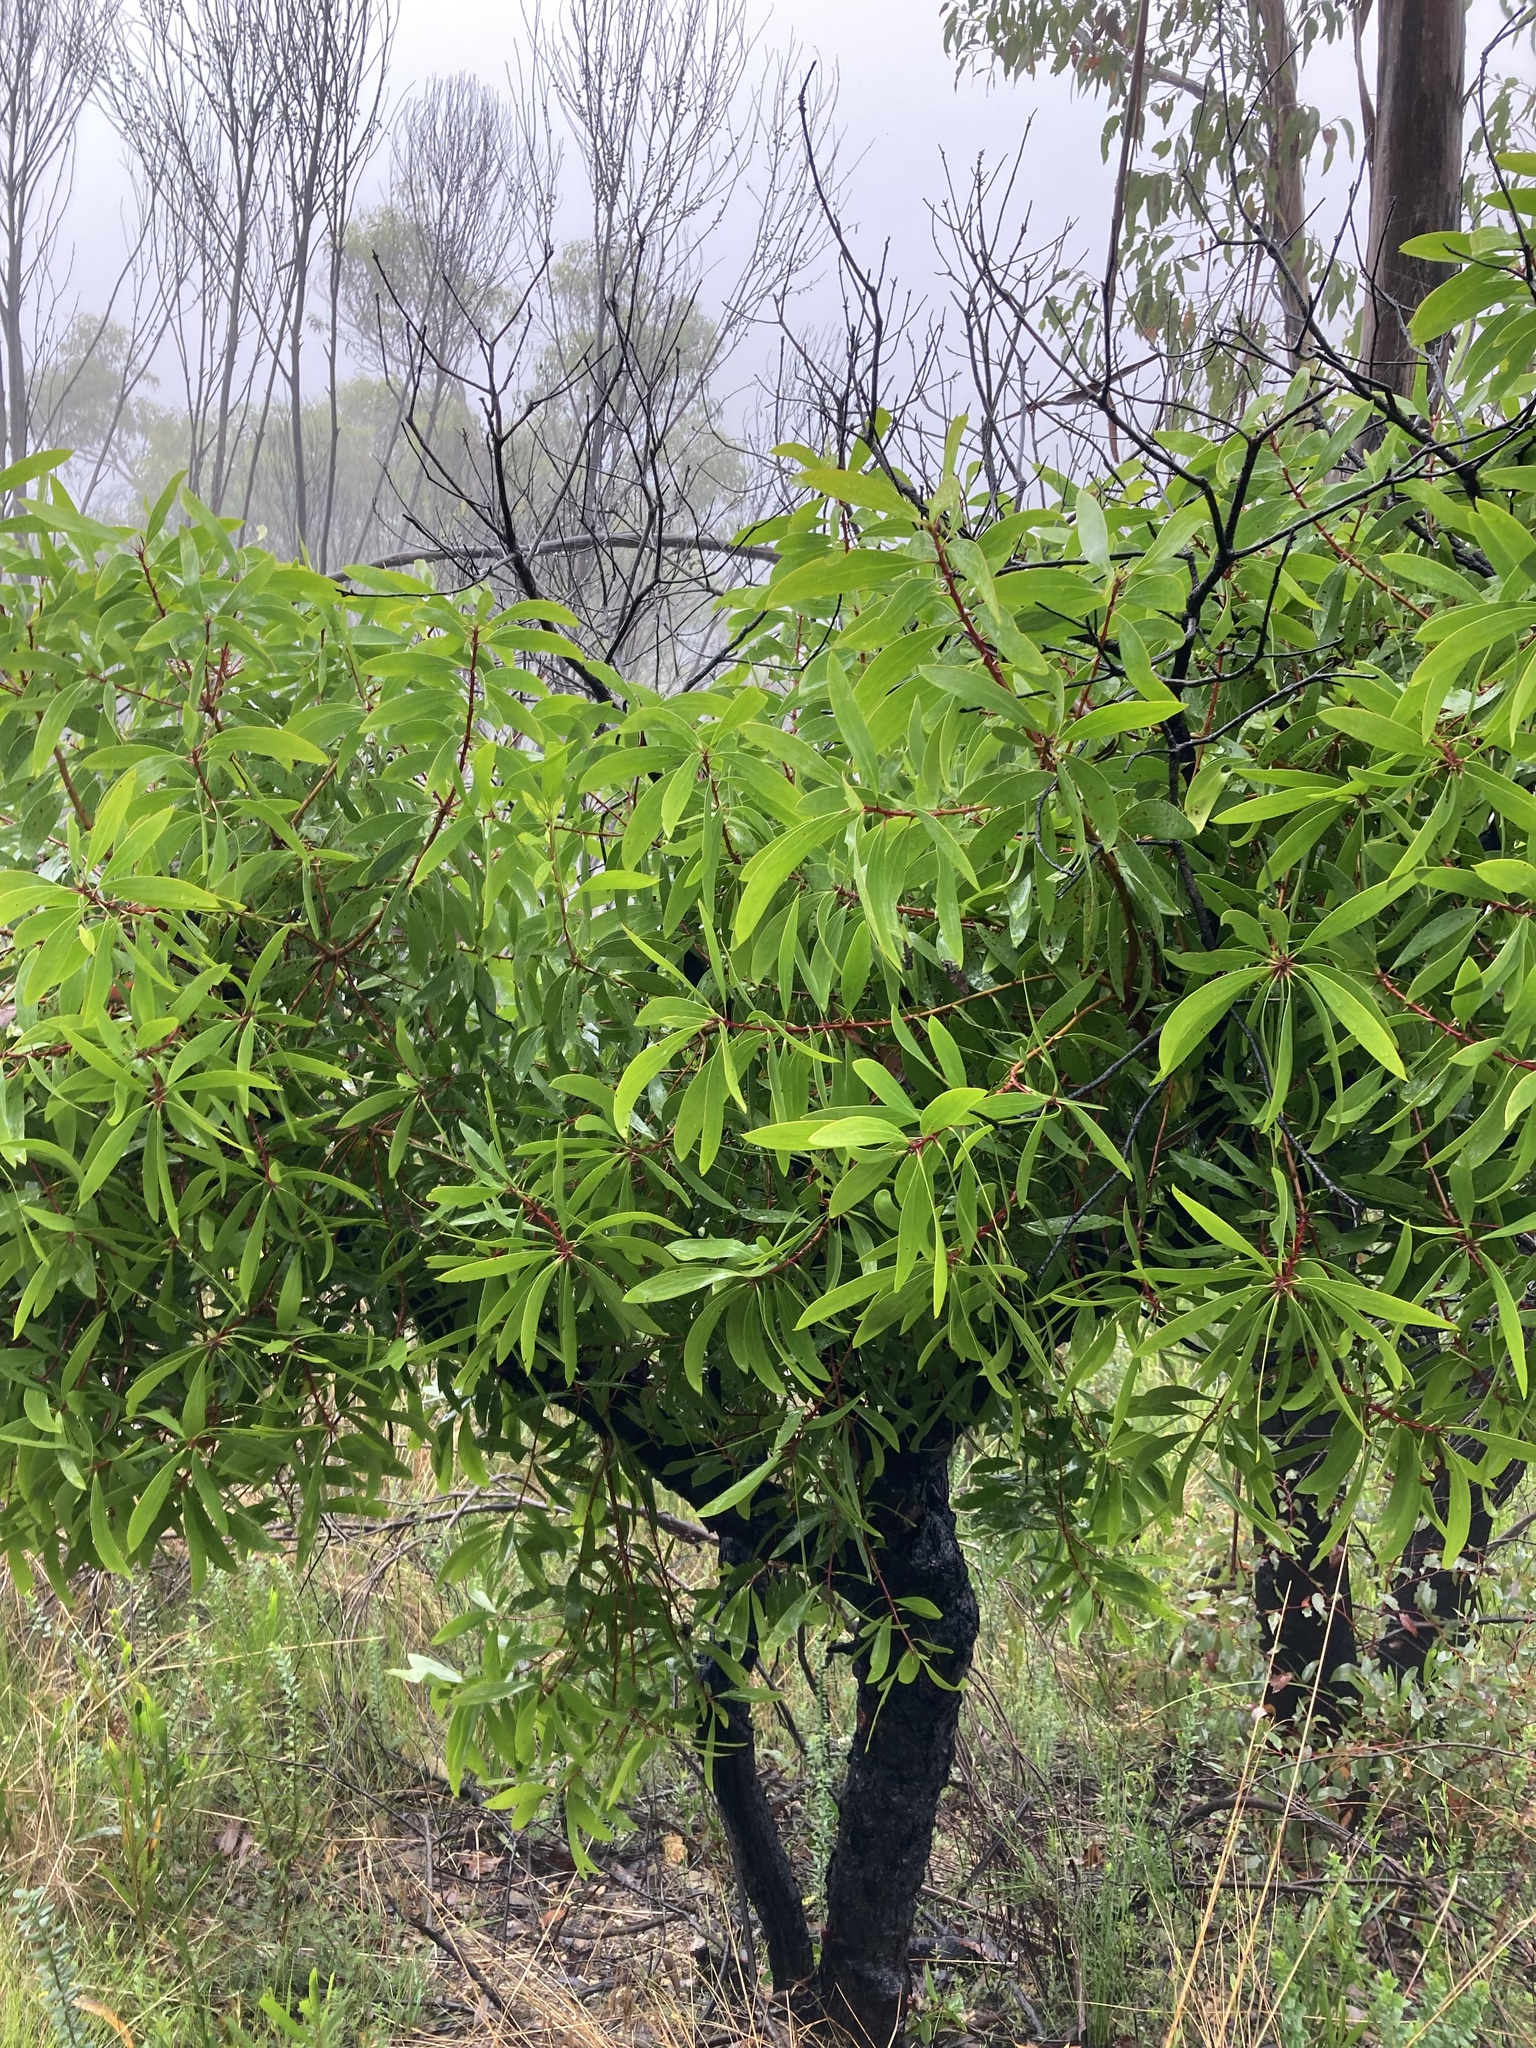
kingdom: Plantae
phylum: Tracheophyta
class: Magnoliopsida
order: Proteales
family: Proteaceae
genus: Persoonia
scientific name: Persoonia levis
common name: Smooth geebung
